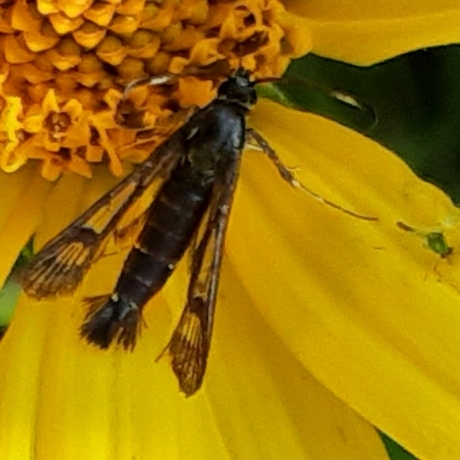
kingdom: Animalia
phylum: Arthropoda
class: Insecta
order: Lepidoptera
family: Sesiidae
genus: Carmenta
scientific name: Carmenta ithacae
